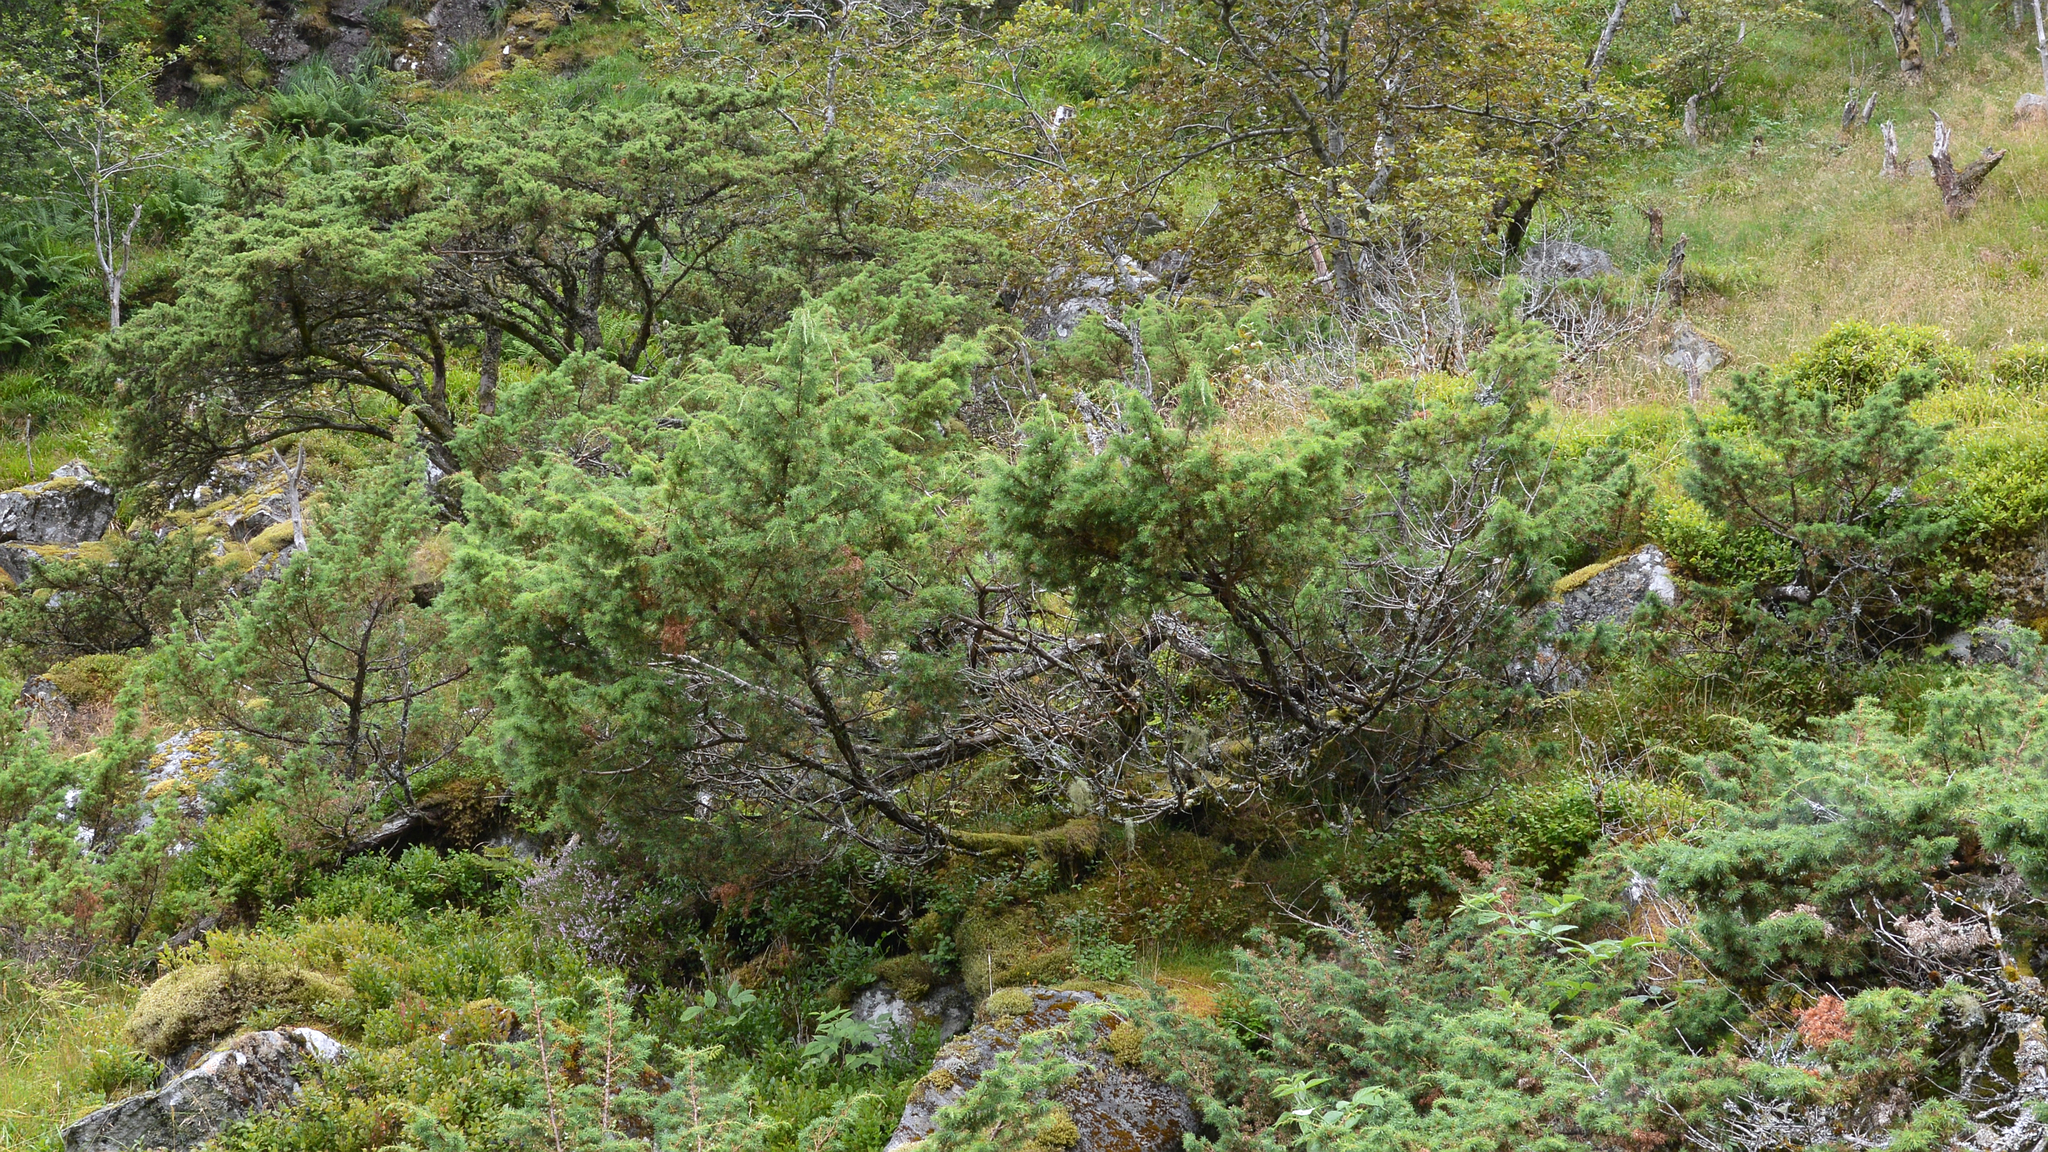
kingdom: Plantae
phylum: Tracheophyta
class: Pinopsida
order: Pinales
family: Cupressaceae
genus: Juniperus
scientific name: Juniperus communis
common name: Common juniper
